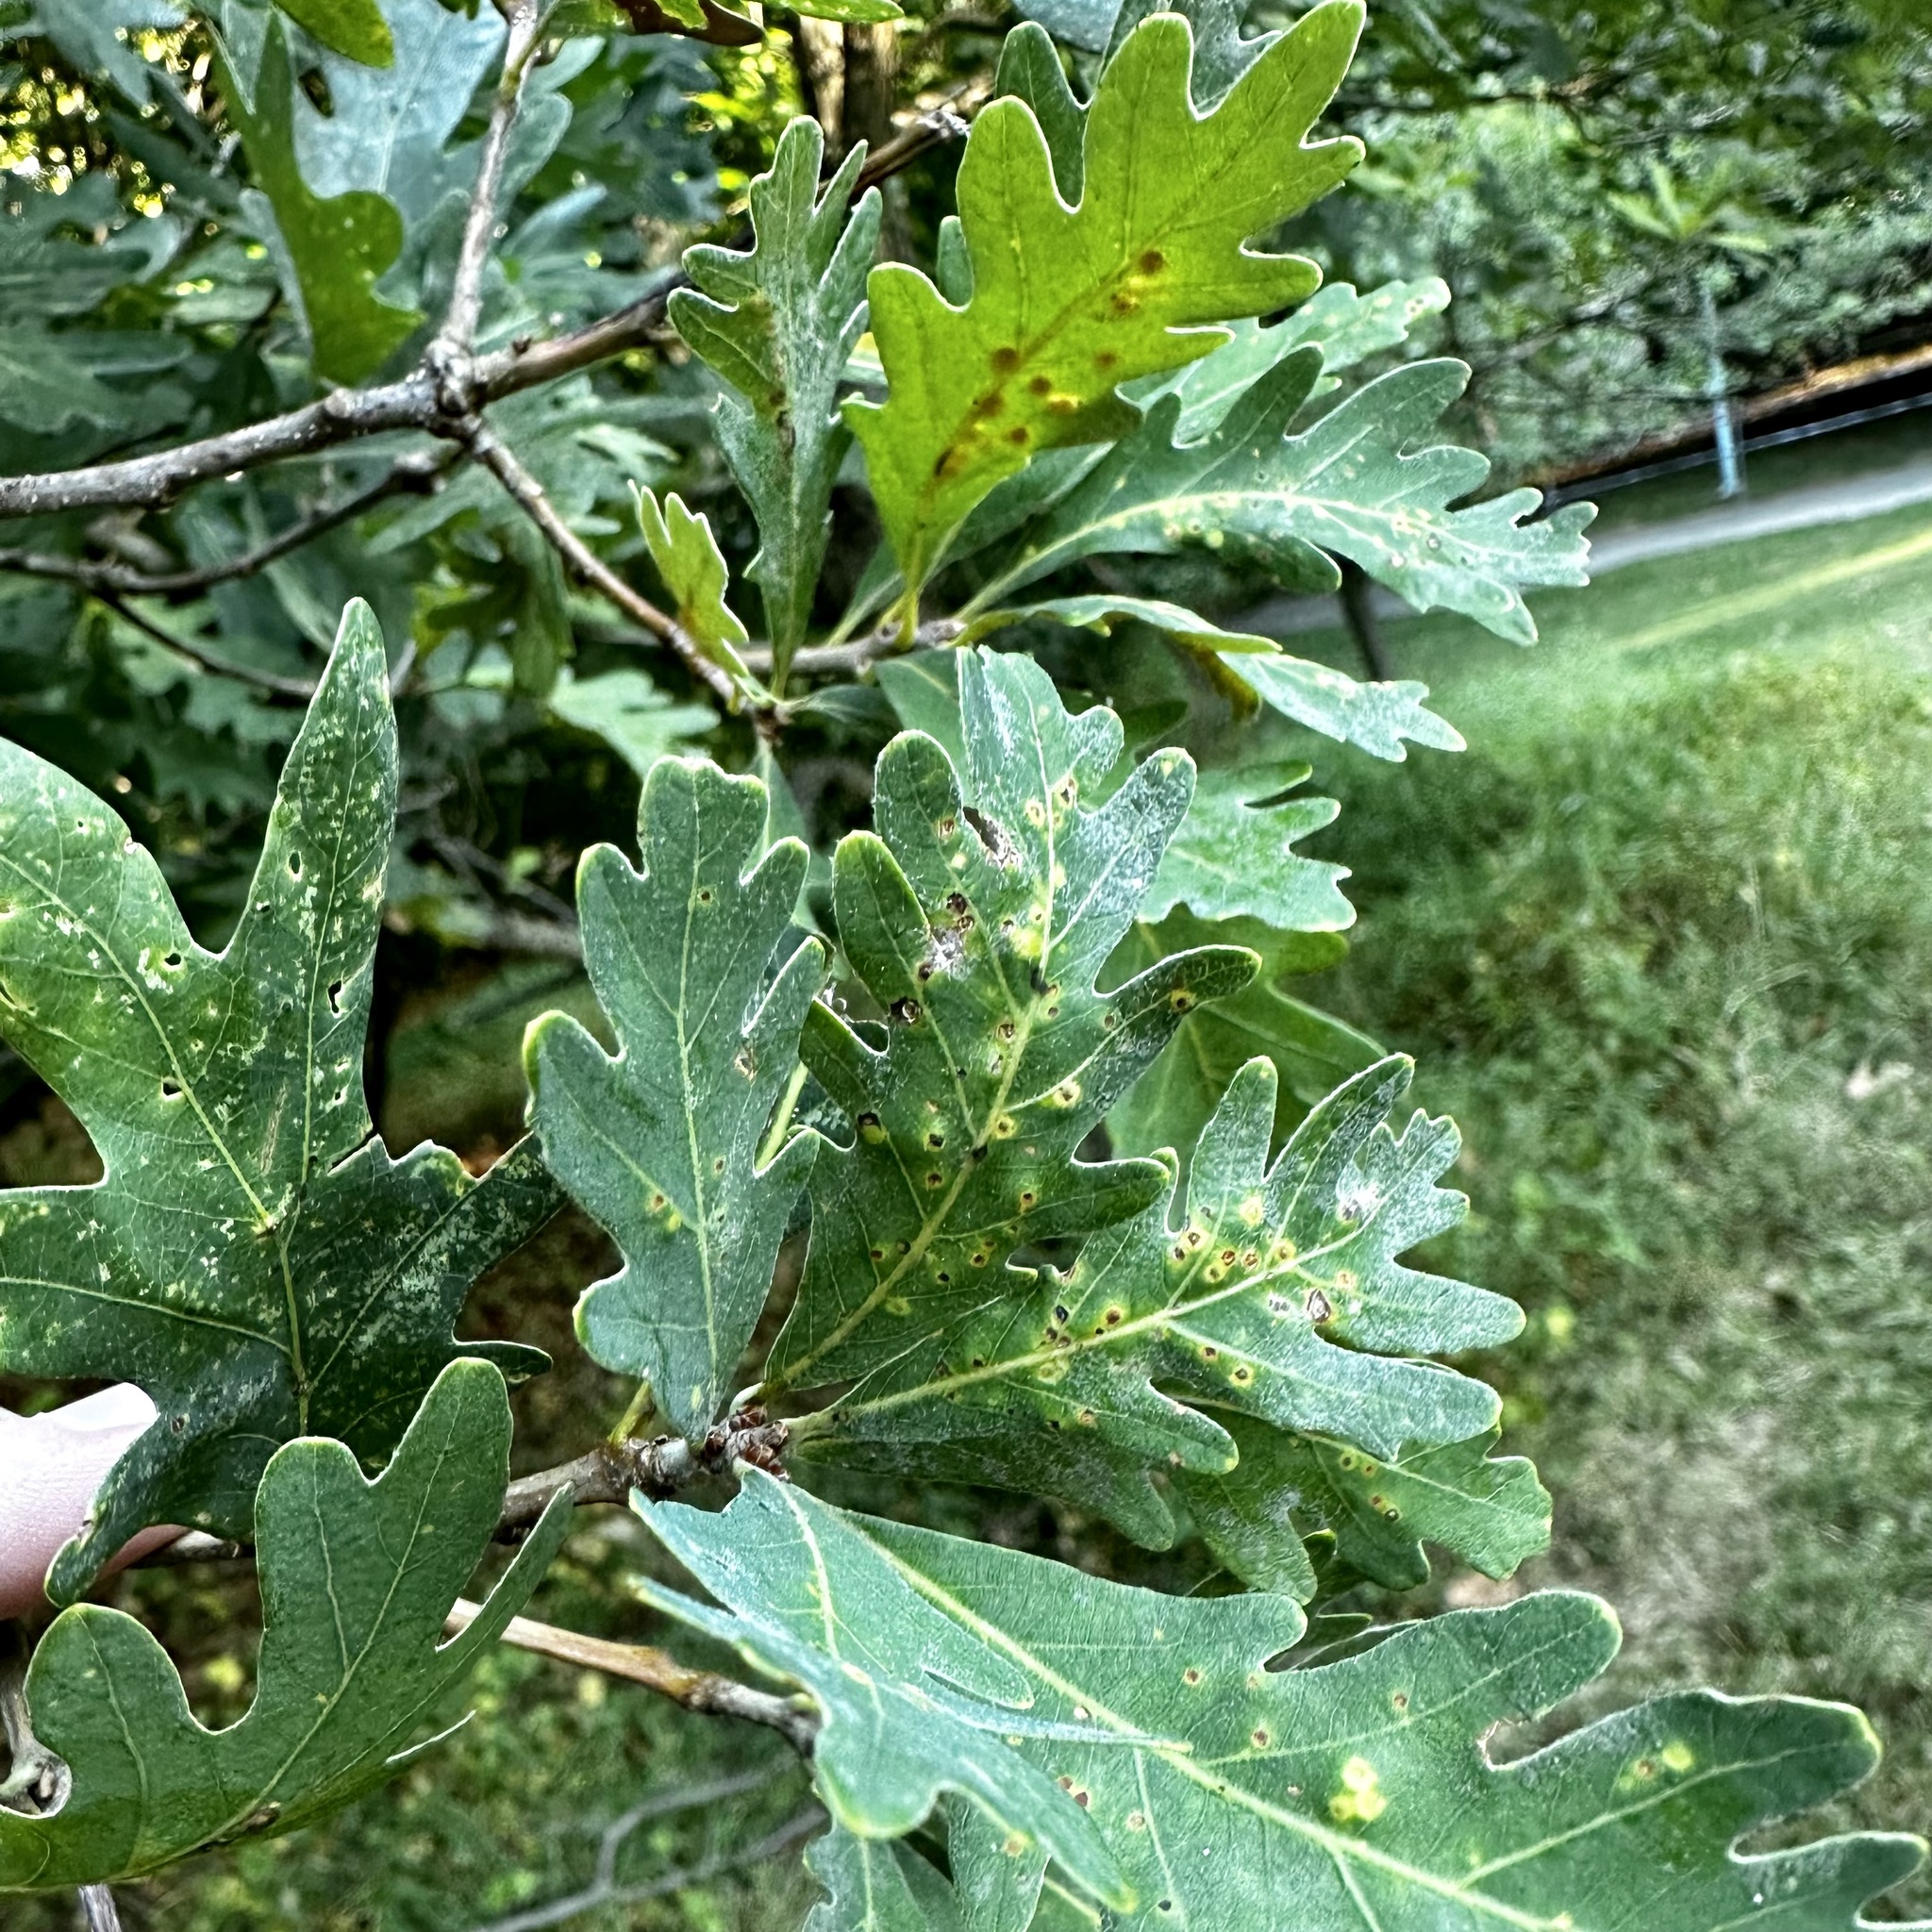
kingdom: Animalia
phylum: Arthropoda
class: Insecta
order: Hymenoptera
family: Cynipidae
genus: Neuroterus
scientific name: Neuroterus quercusverrucarum
